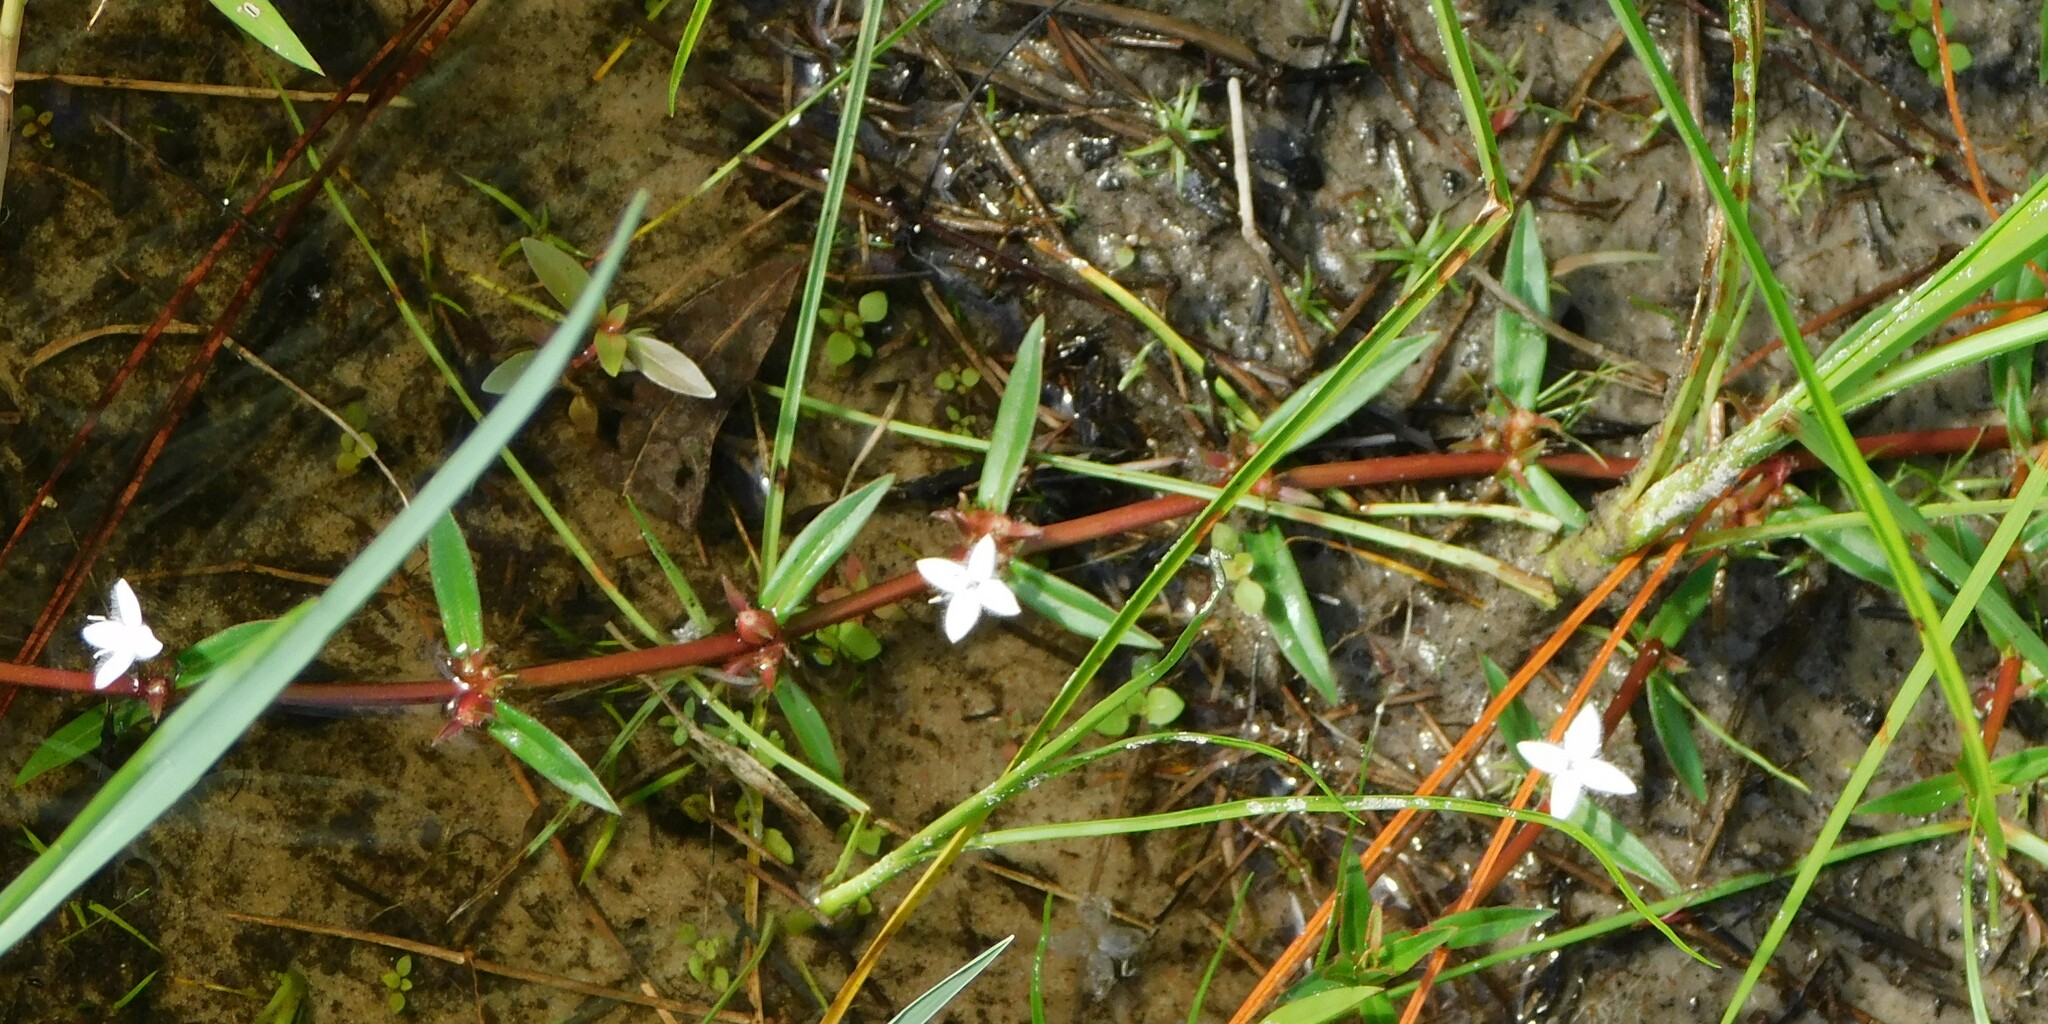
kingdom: Plantae
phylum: Tracheophyta
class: Magnoliopsida
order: Gentianales
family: Rubiaceae
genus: Diodia
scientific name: Diodia virginiana
